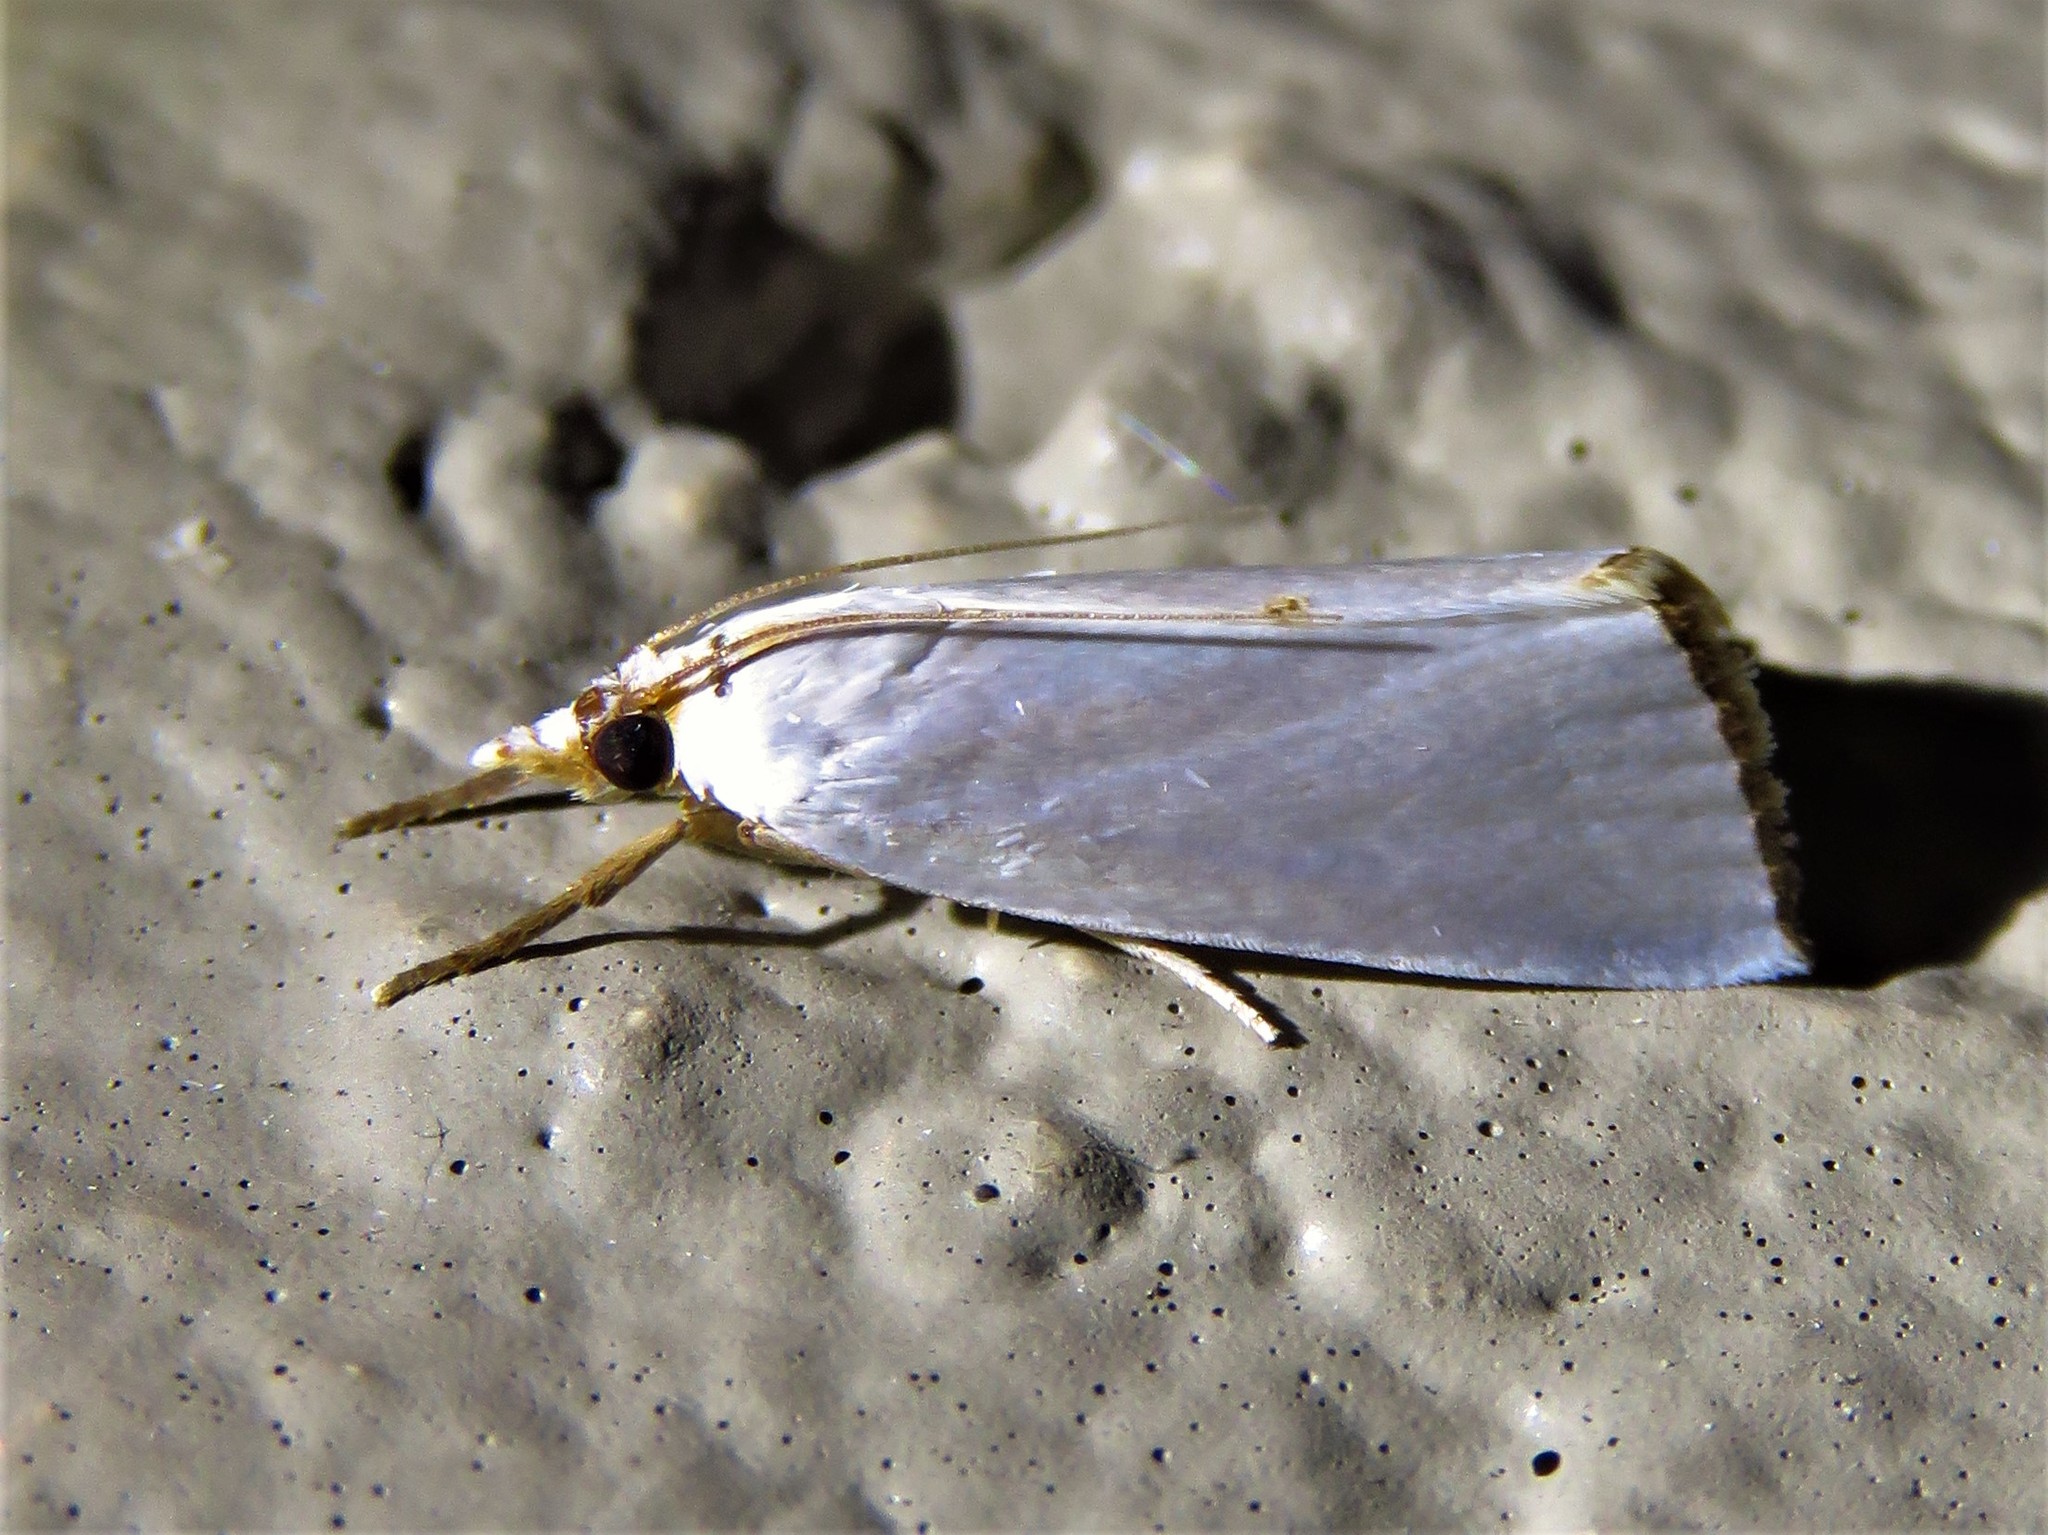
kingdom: Animalia
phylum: Arthropoda
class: Insecta
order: Lepidoptera
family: Crambidae
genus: Argyria
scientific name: Argyria nivalis
